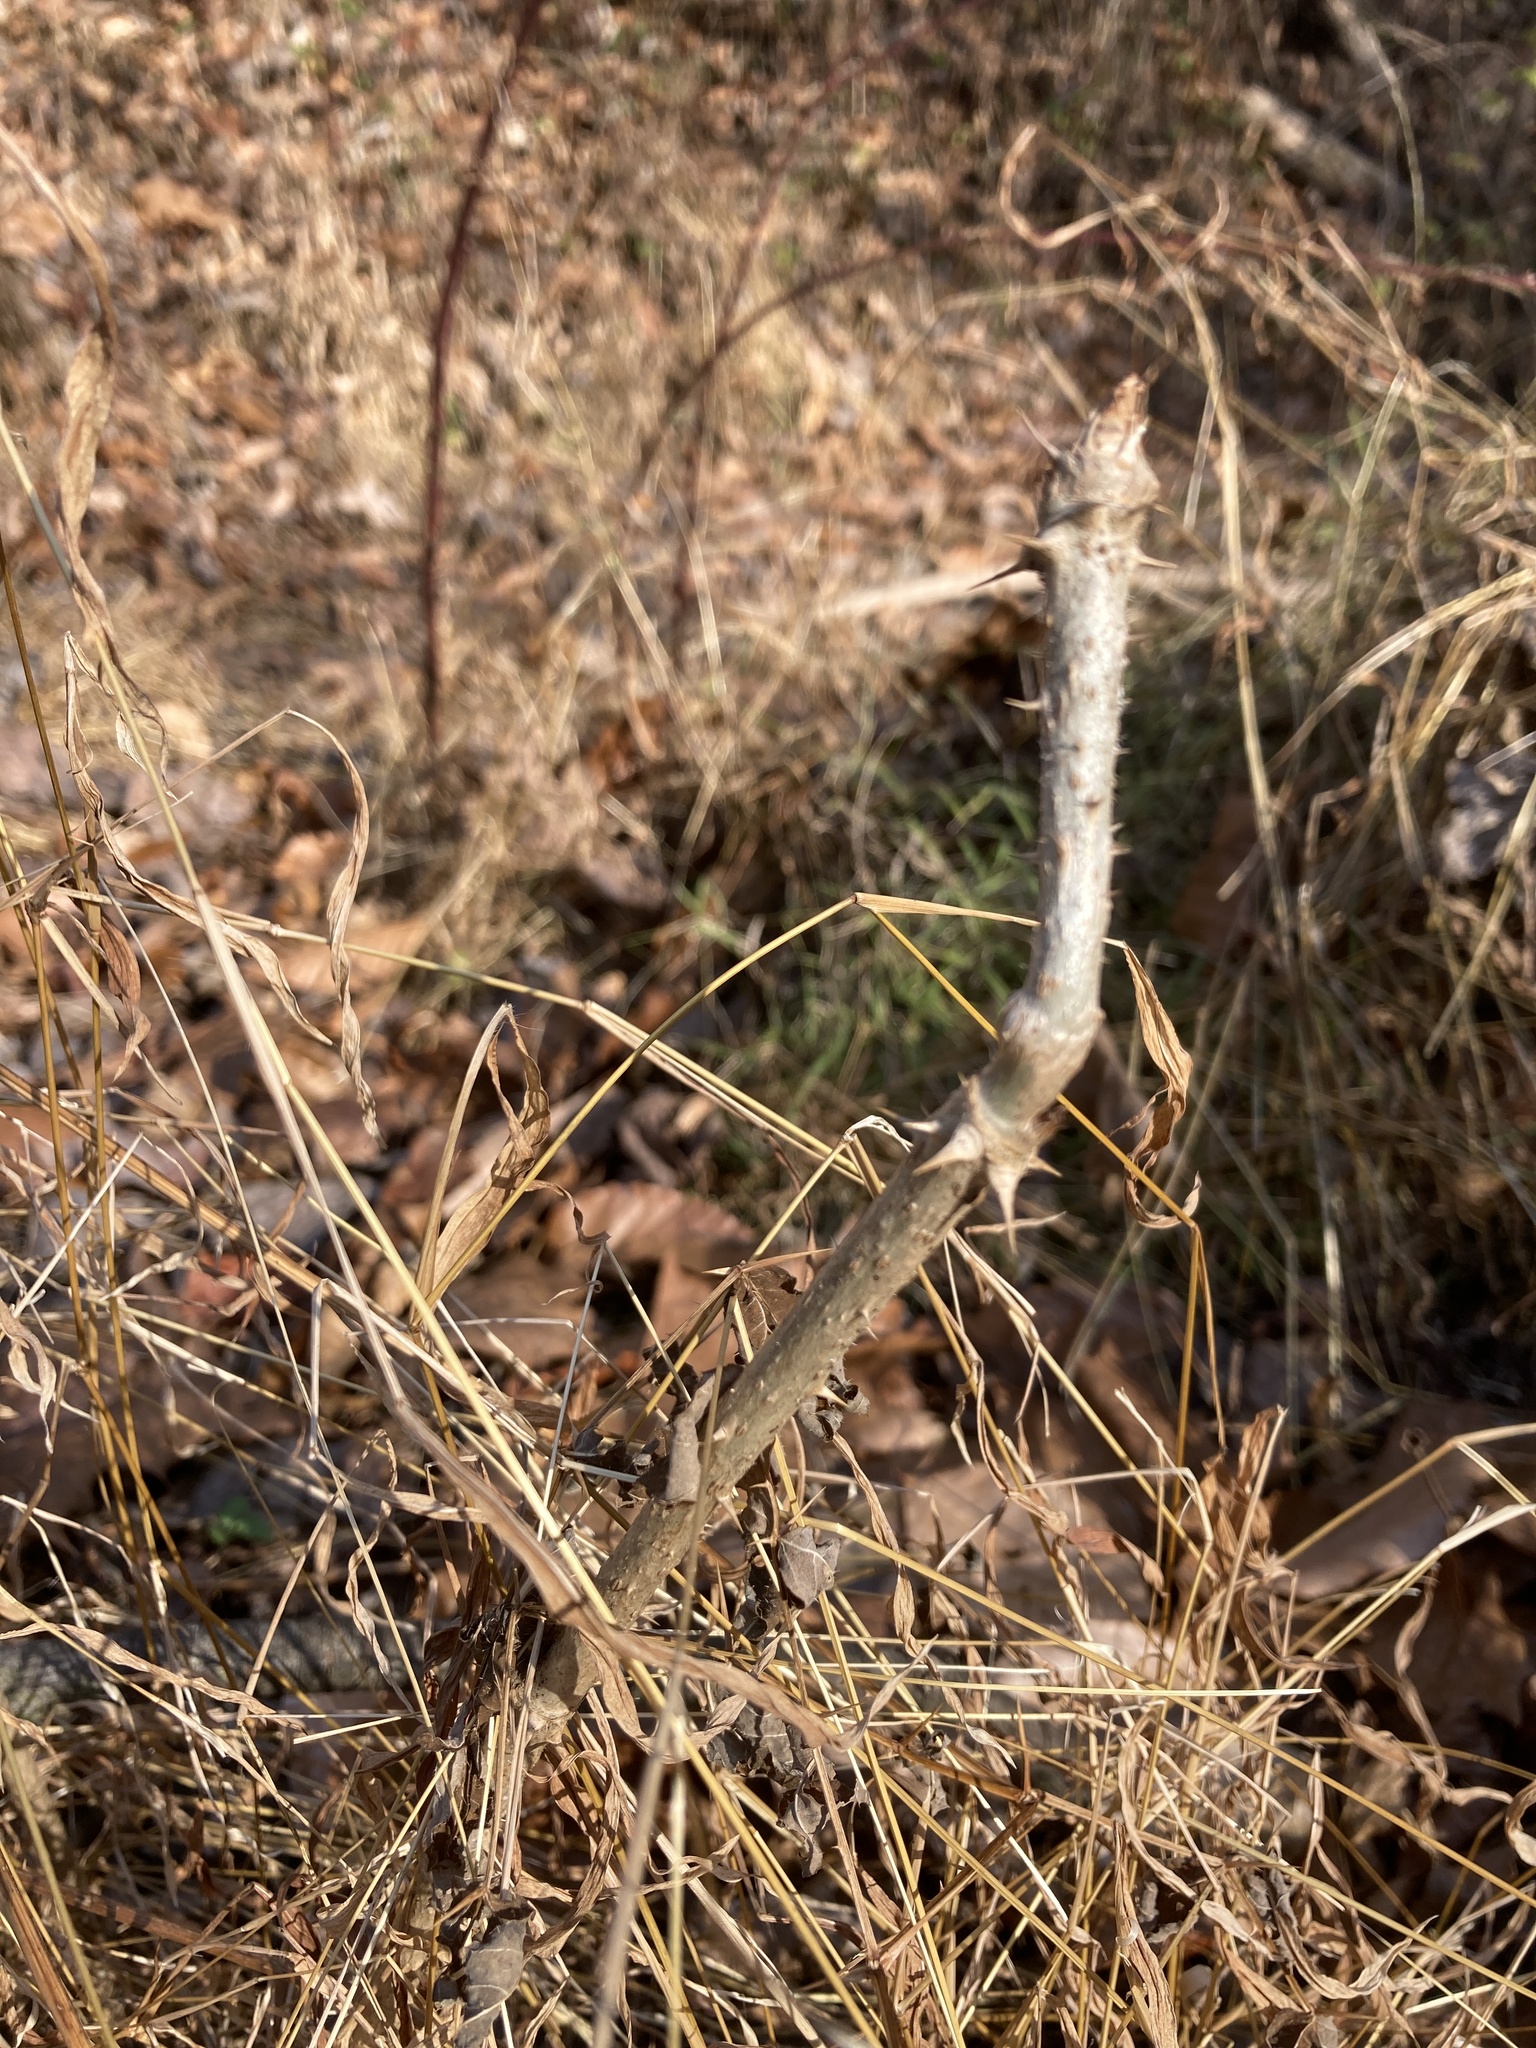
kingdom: Plantae
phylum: Tracheophyta
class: Magnoliopsida
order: Apiales
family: Araliaceae
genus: Aralia
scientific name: Aralia elata
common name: Japanese angelica-tree
